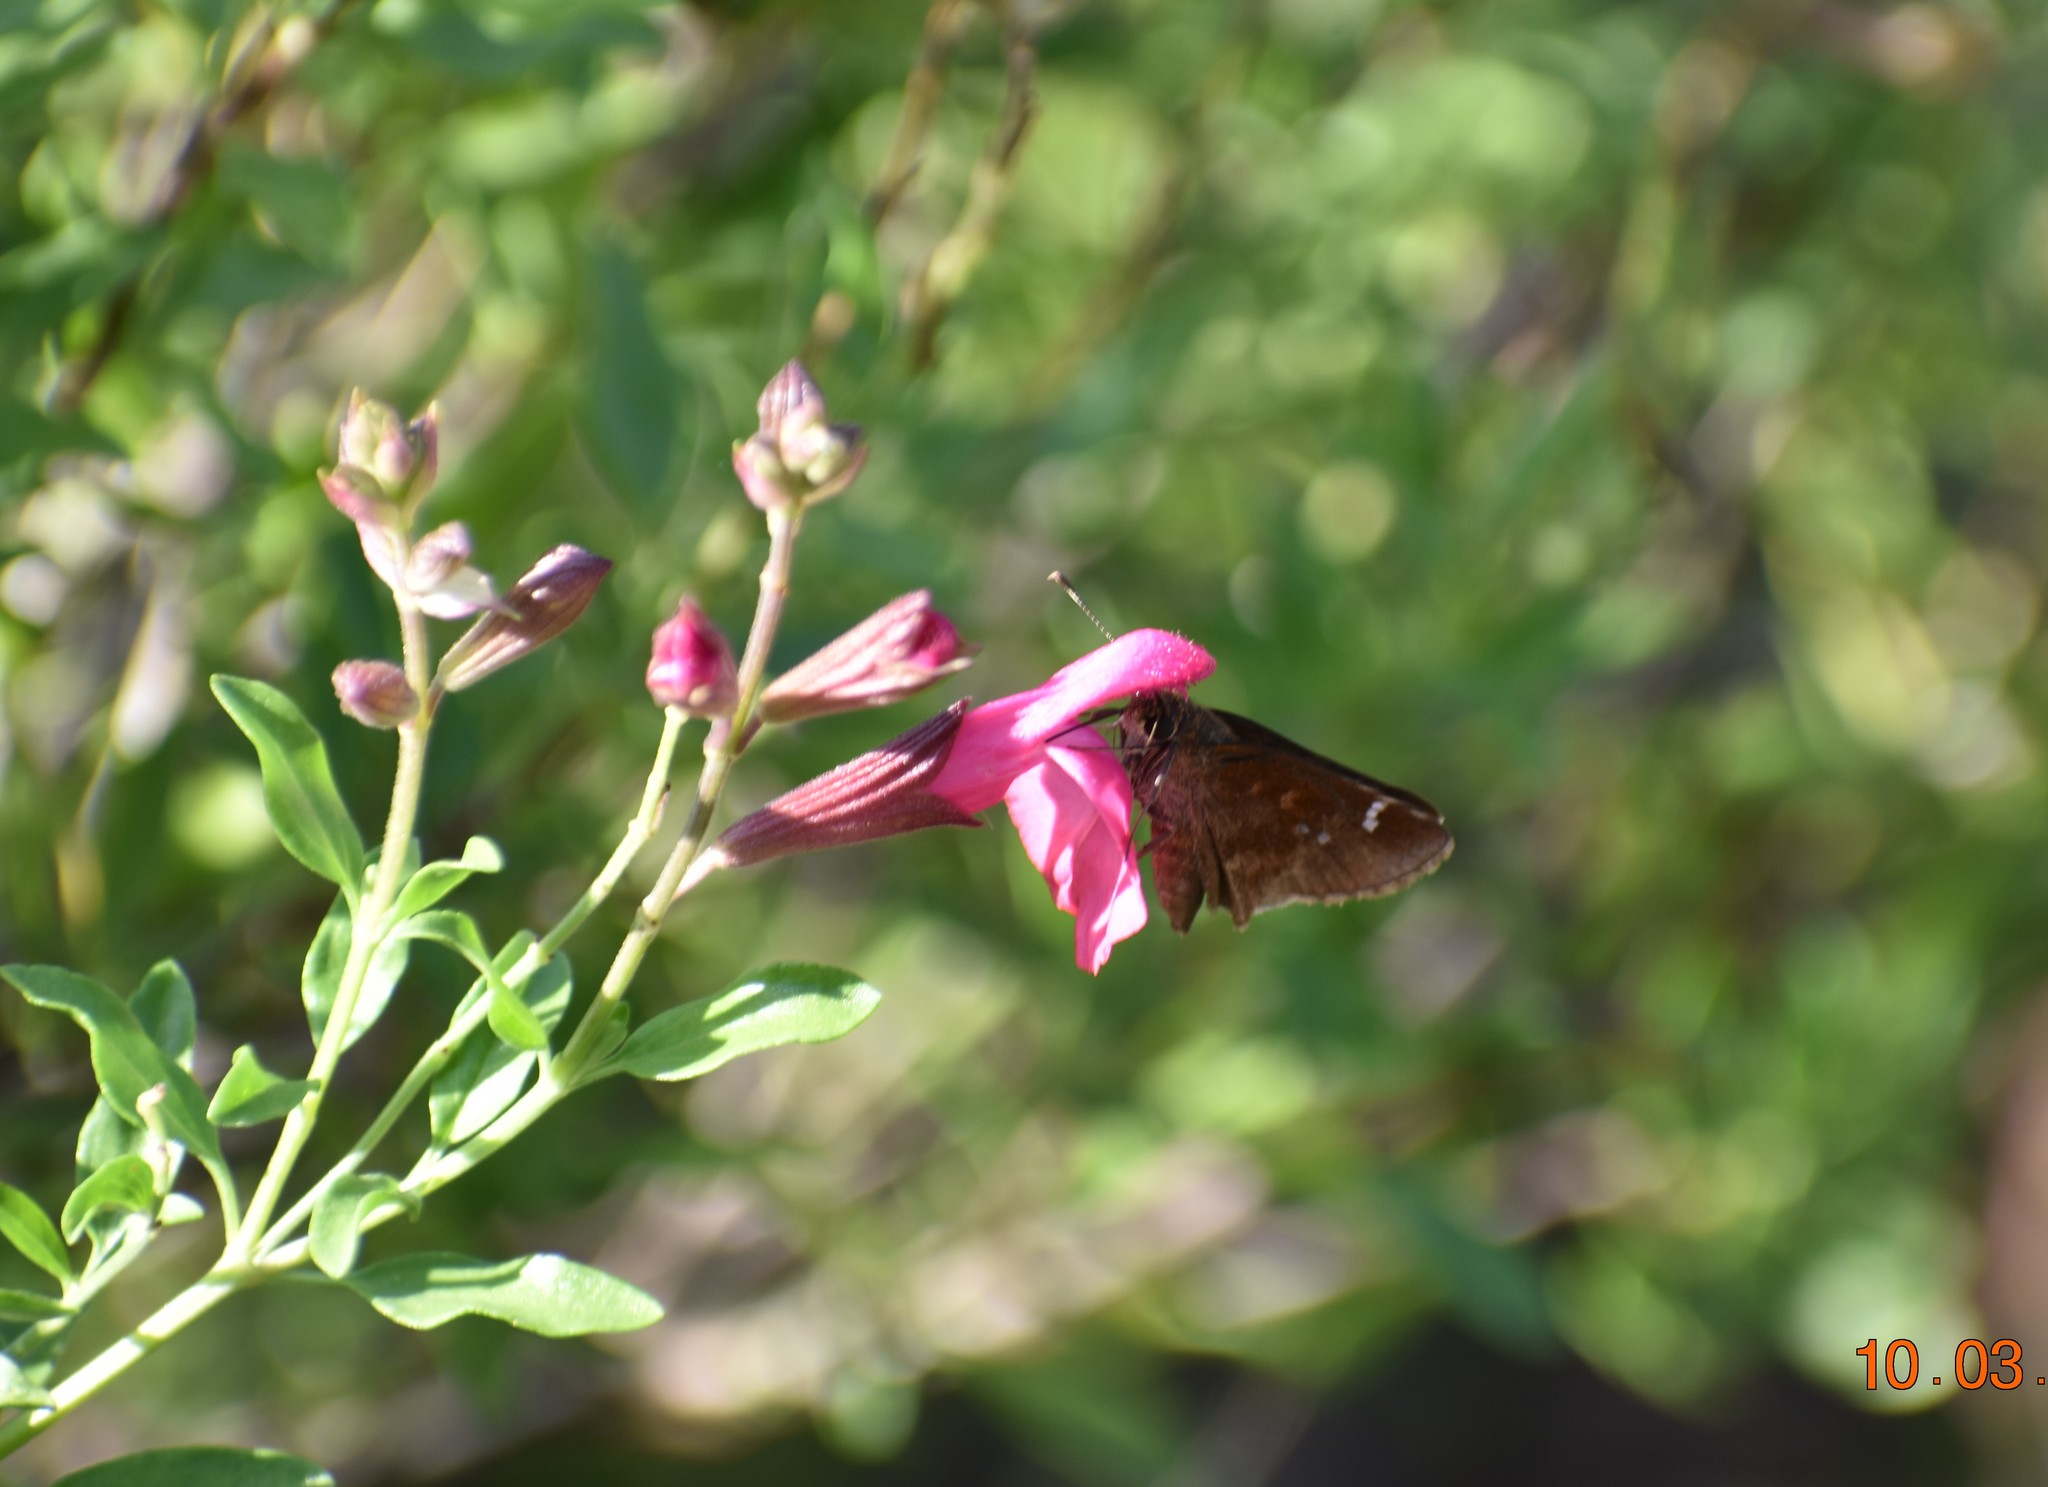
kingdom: Animalia
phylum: Arthropoda
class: Insecta
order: Lepidoptera
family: Hesperiidae
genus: Lerema
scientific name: Lerema accius
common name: Clouded skipper
